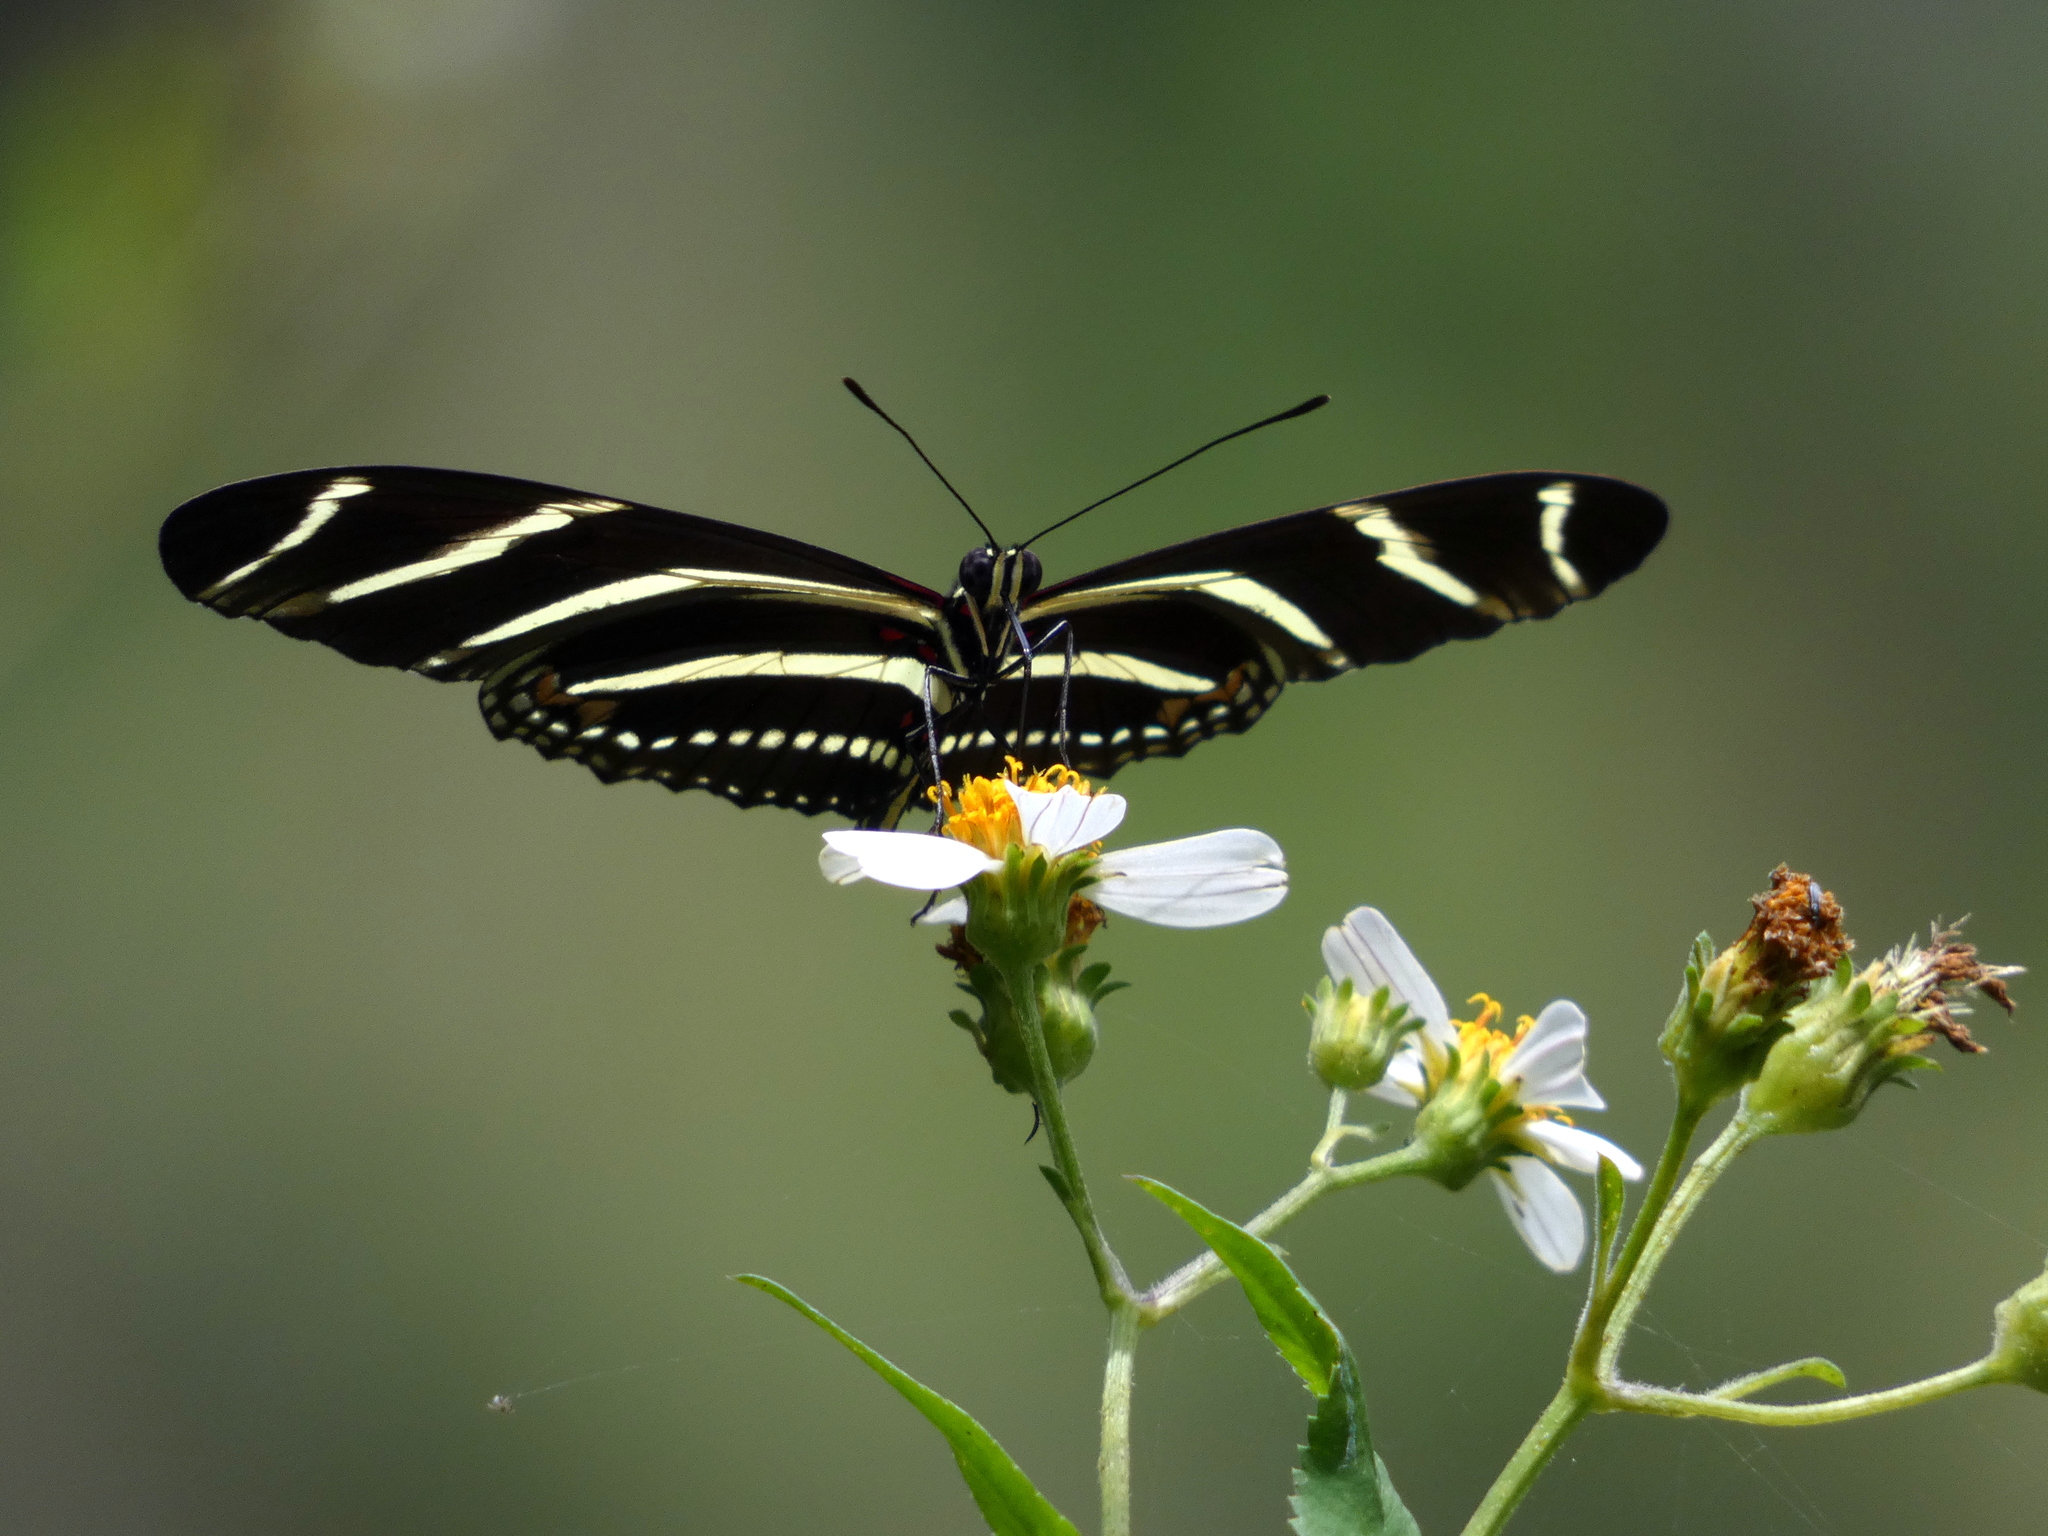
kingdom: Animalia
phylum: Arthropoda
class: Insecta
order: Lepidoptera
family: Nymphalidae
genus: Heliconius
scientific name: Heliconius charithonia
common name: Zebra long wing
